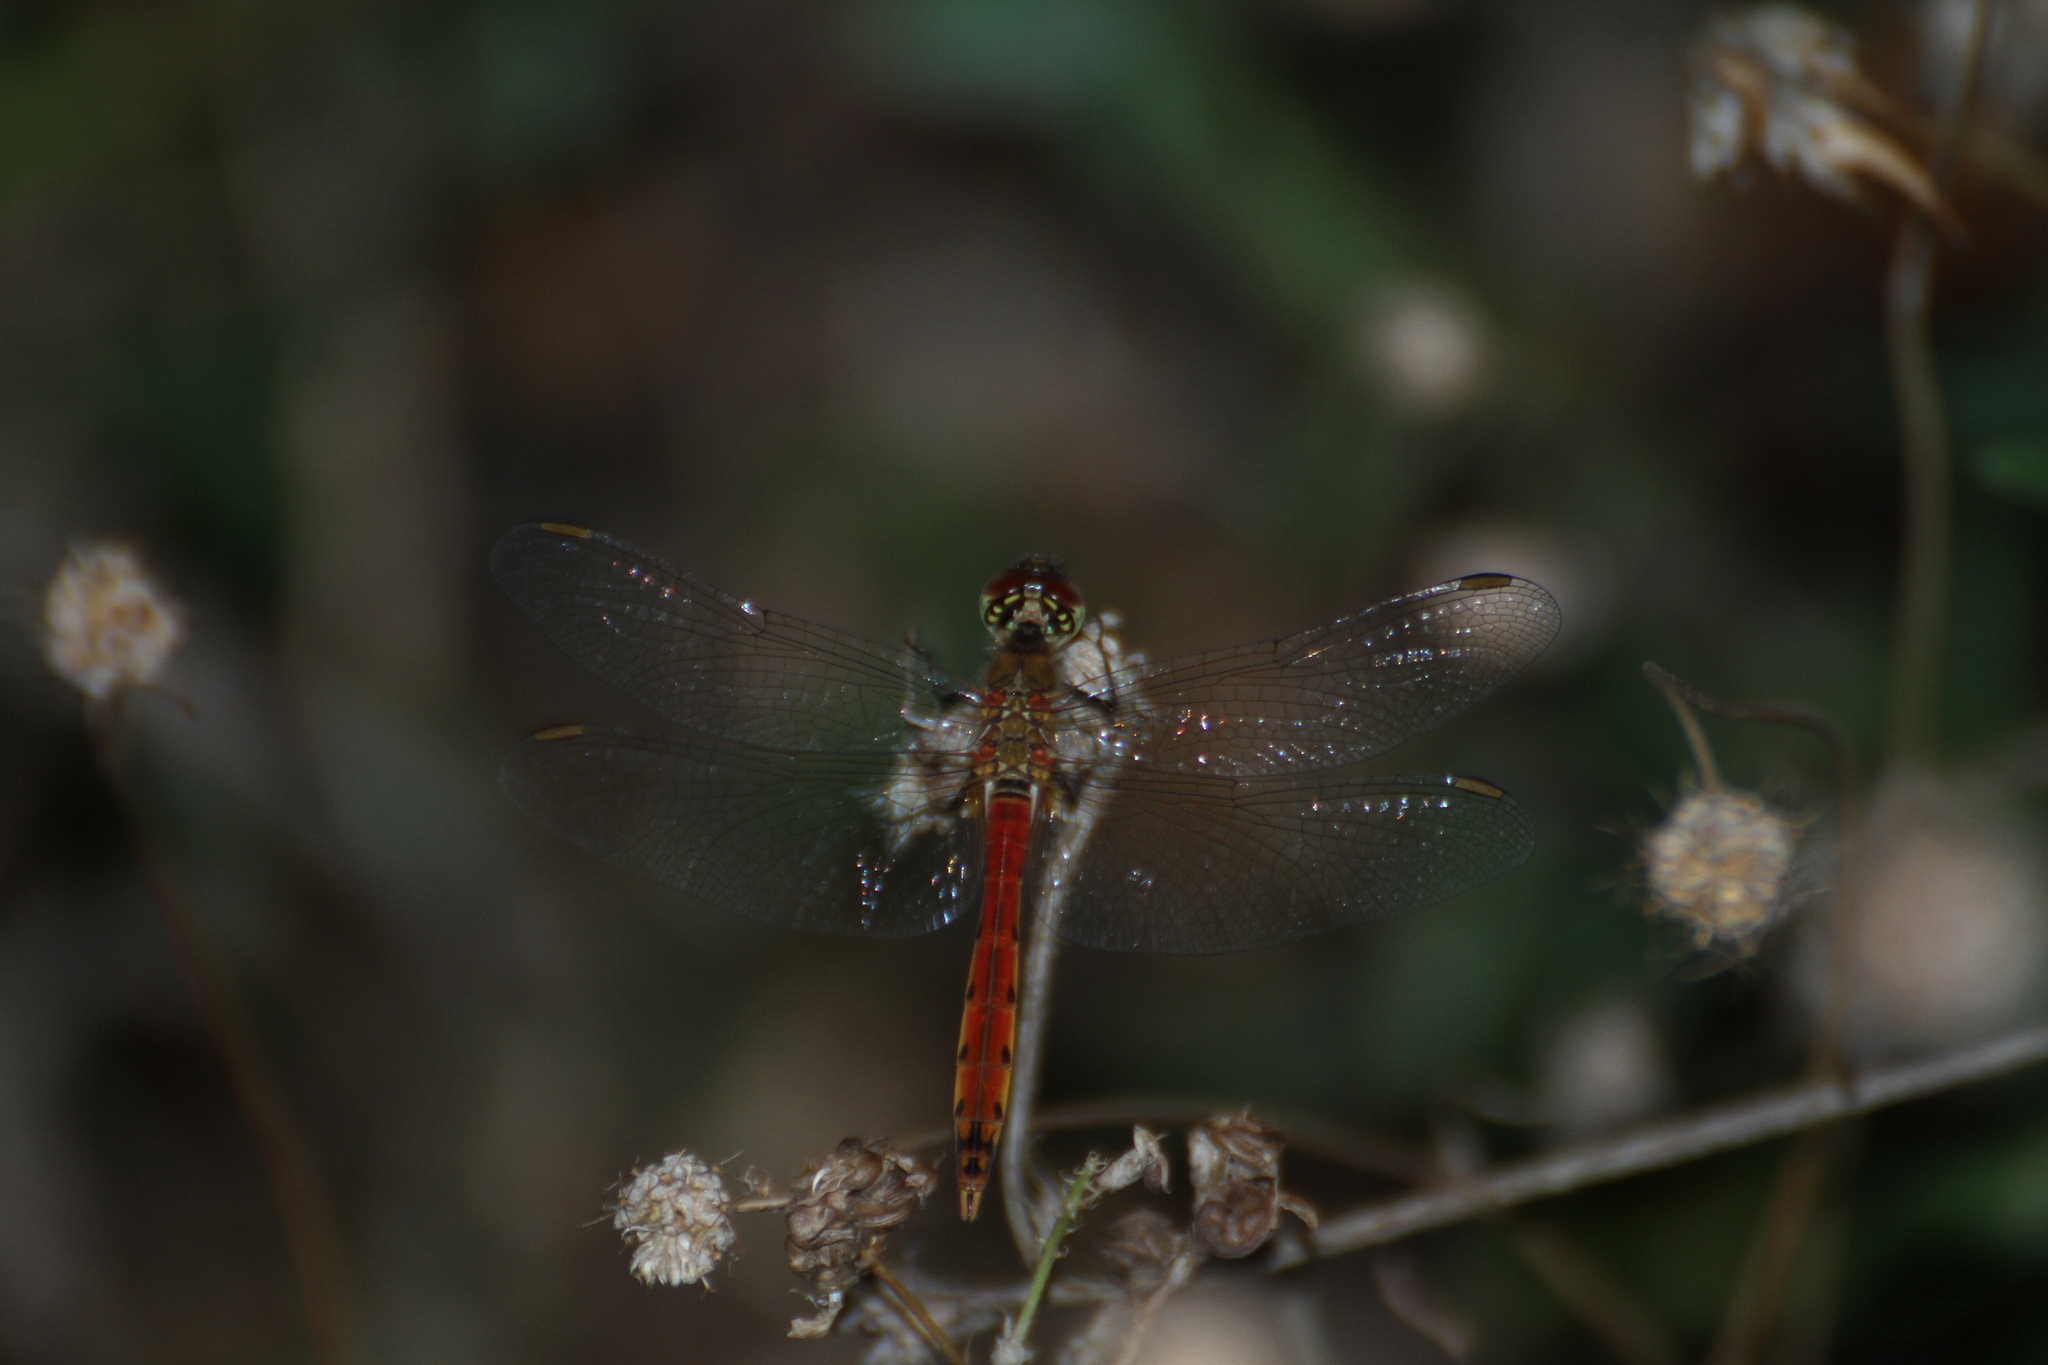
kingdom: Animalia
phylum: Arthropoda
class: Insecta
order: Odonata
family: Libellulidae
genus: Sympetrum
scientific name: Sympetrum depressiusculum
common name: Spotted darter
